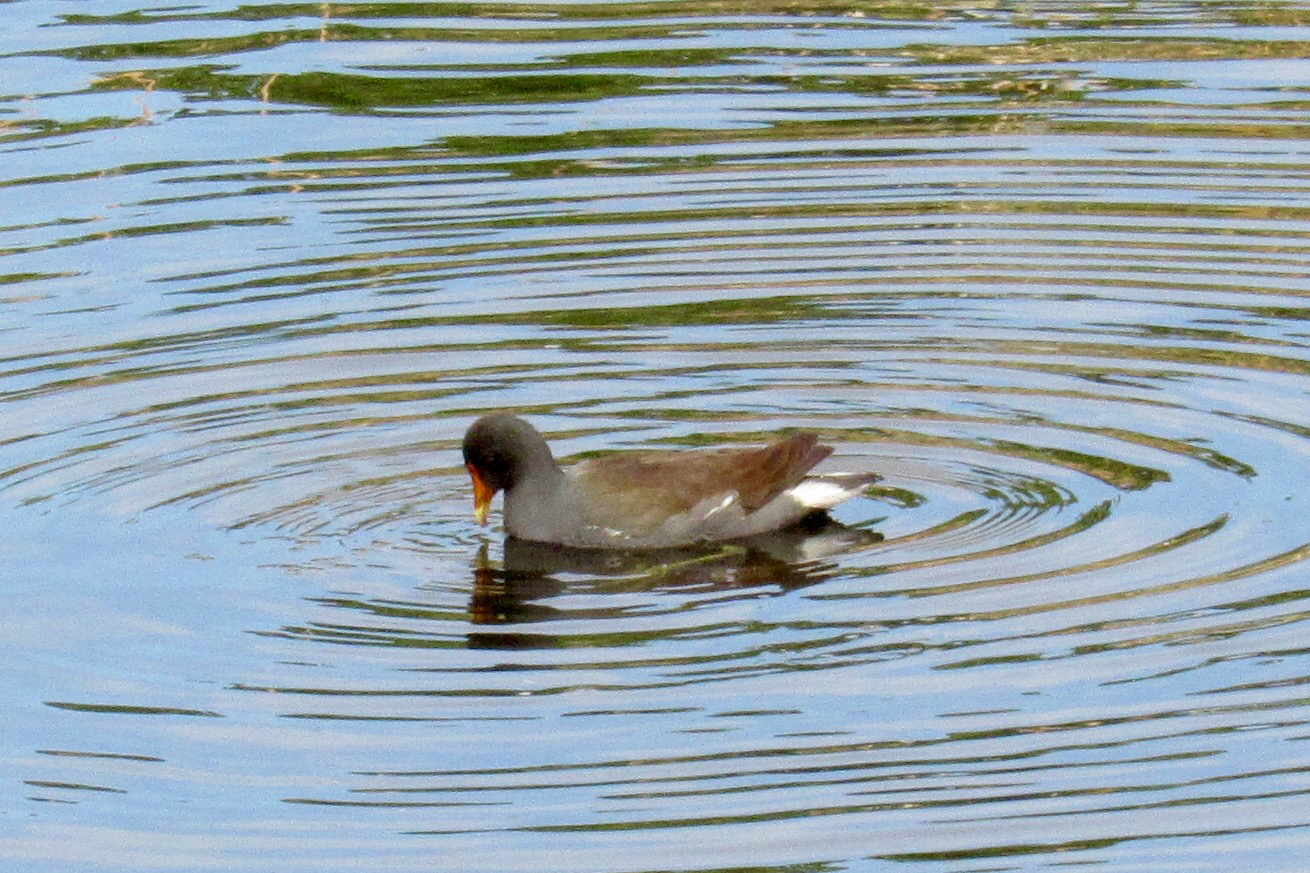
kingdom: Animalia
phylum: Chordata
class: Aves
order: Gruiformes
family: Rallidae
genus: Gallinula
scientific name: Gallinula chloropus
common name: Common moorhen
